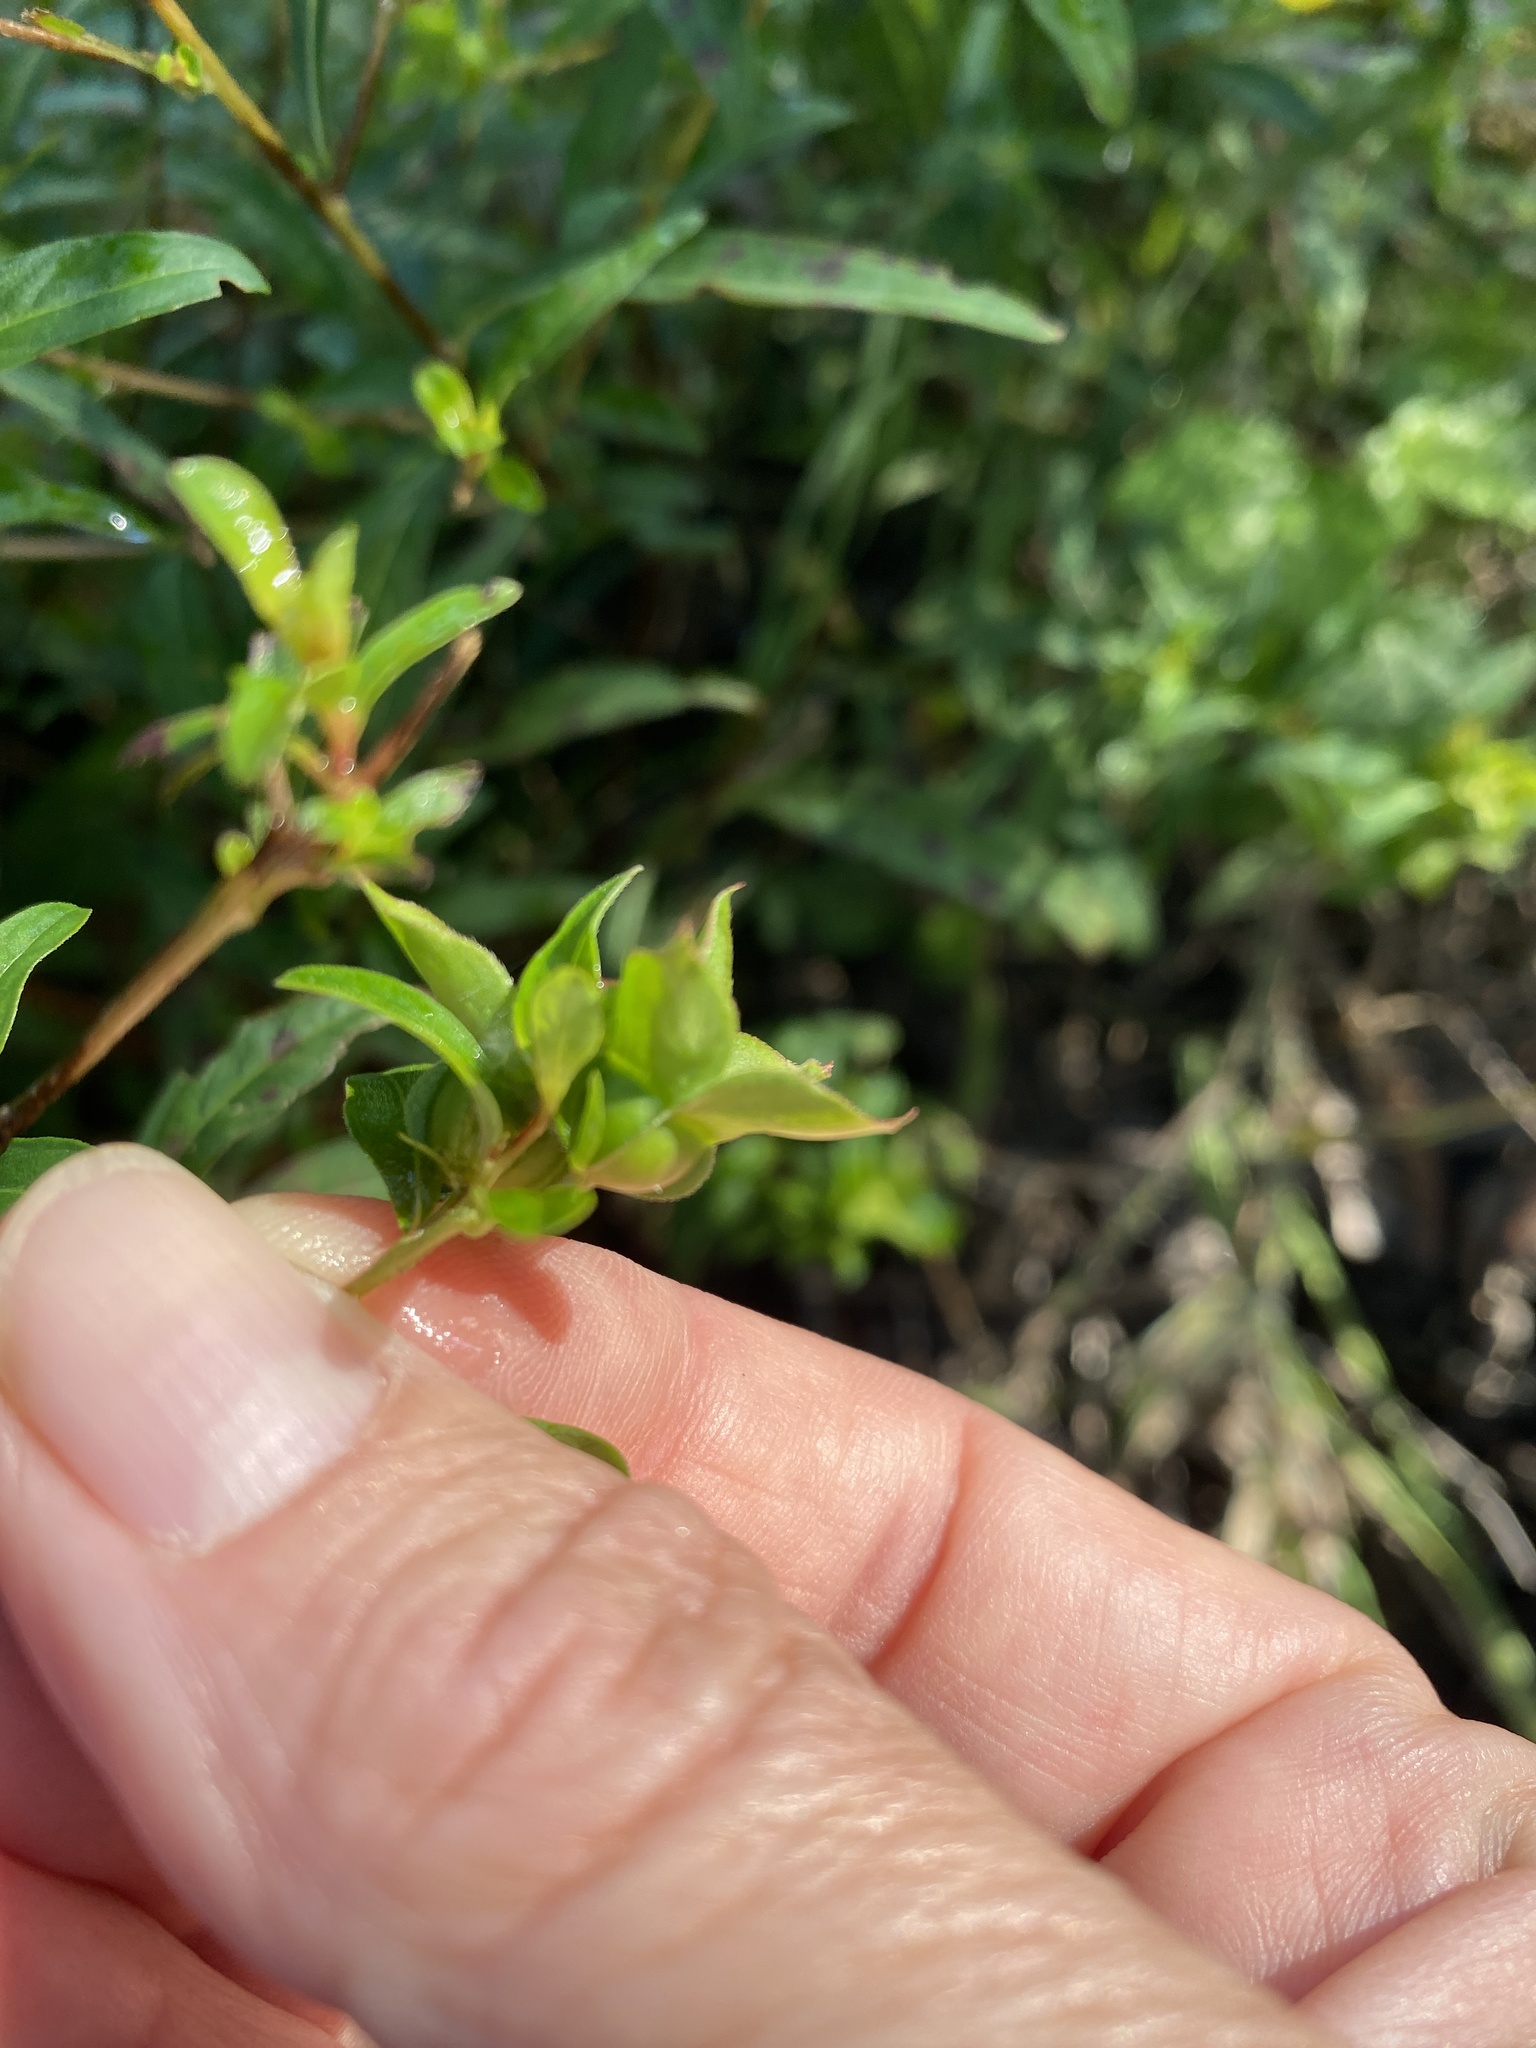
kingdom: Plantae
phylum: Tracheophyta
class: Magnoliopsida
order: Myrtales
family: Onagraceae
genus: Ludwigia
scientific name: Ludwigia alternifolia
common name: Rattlebox
